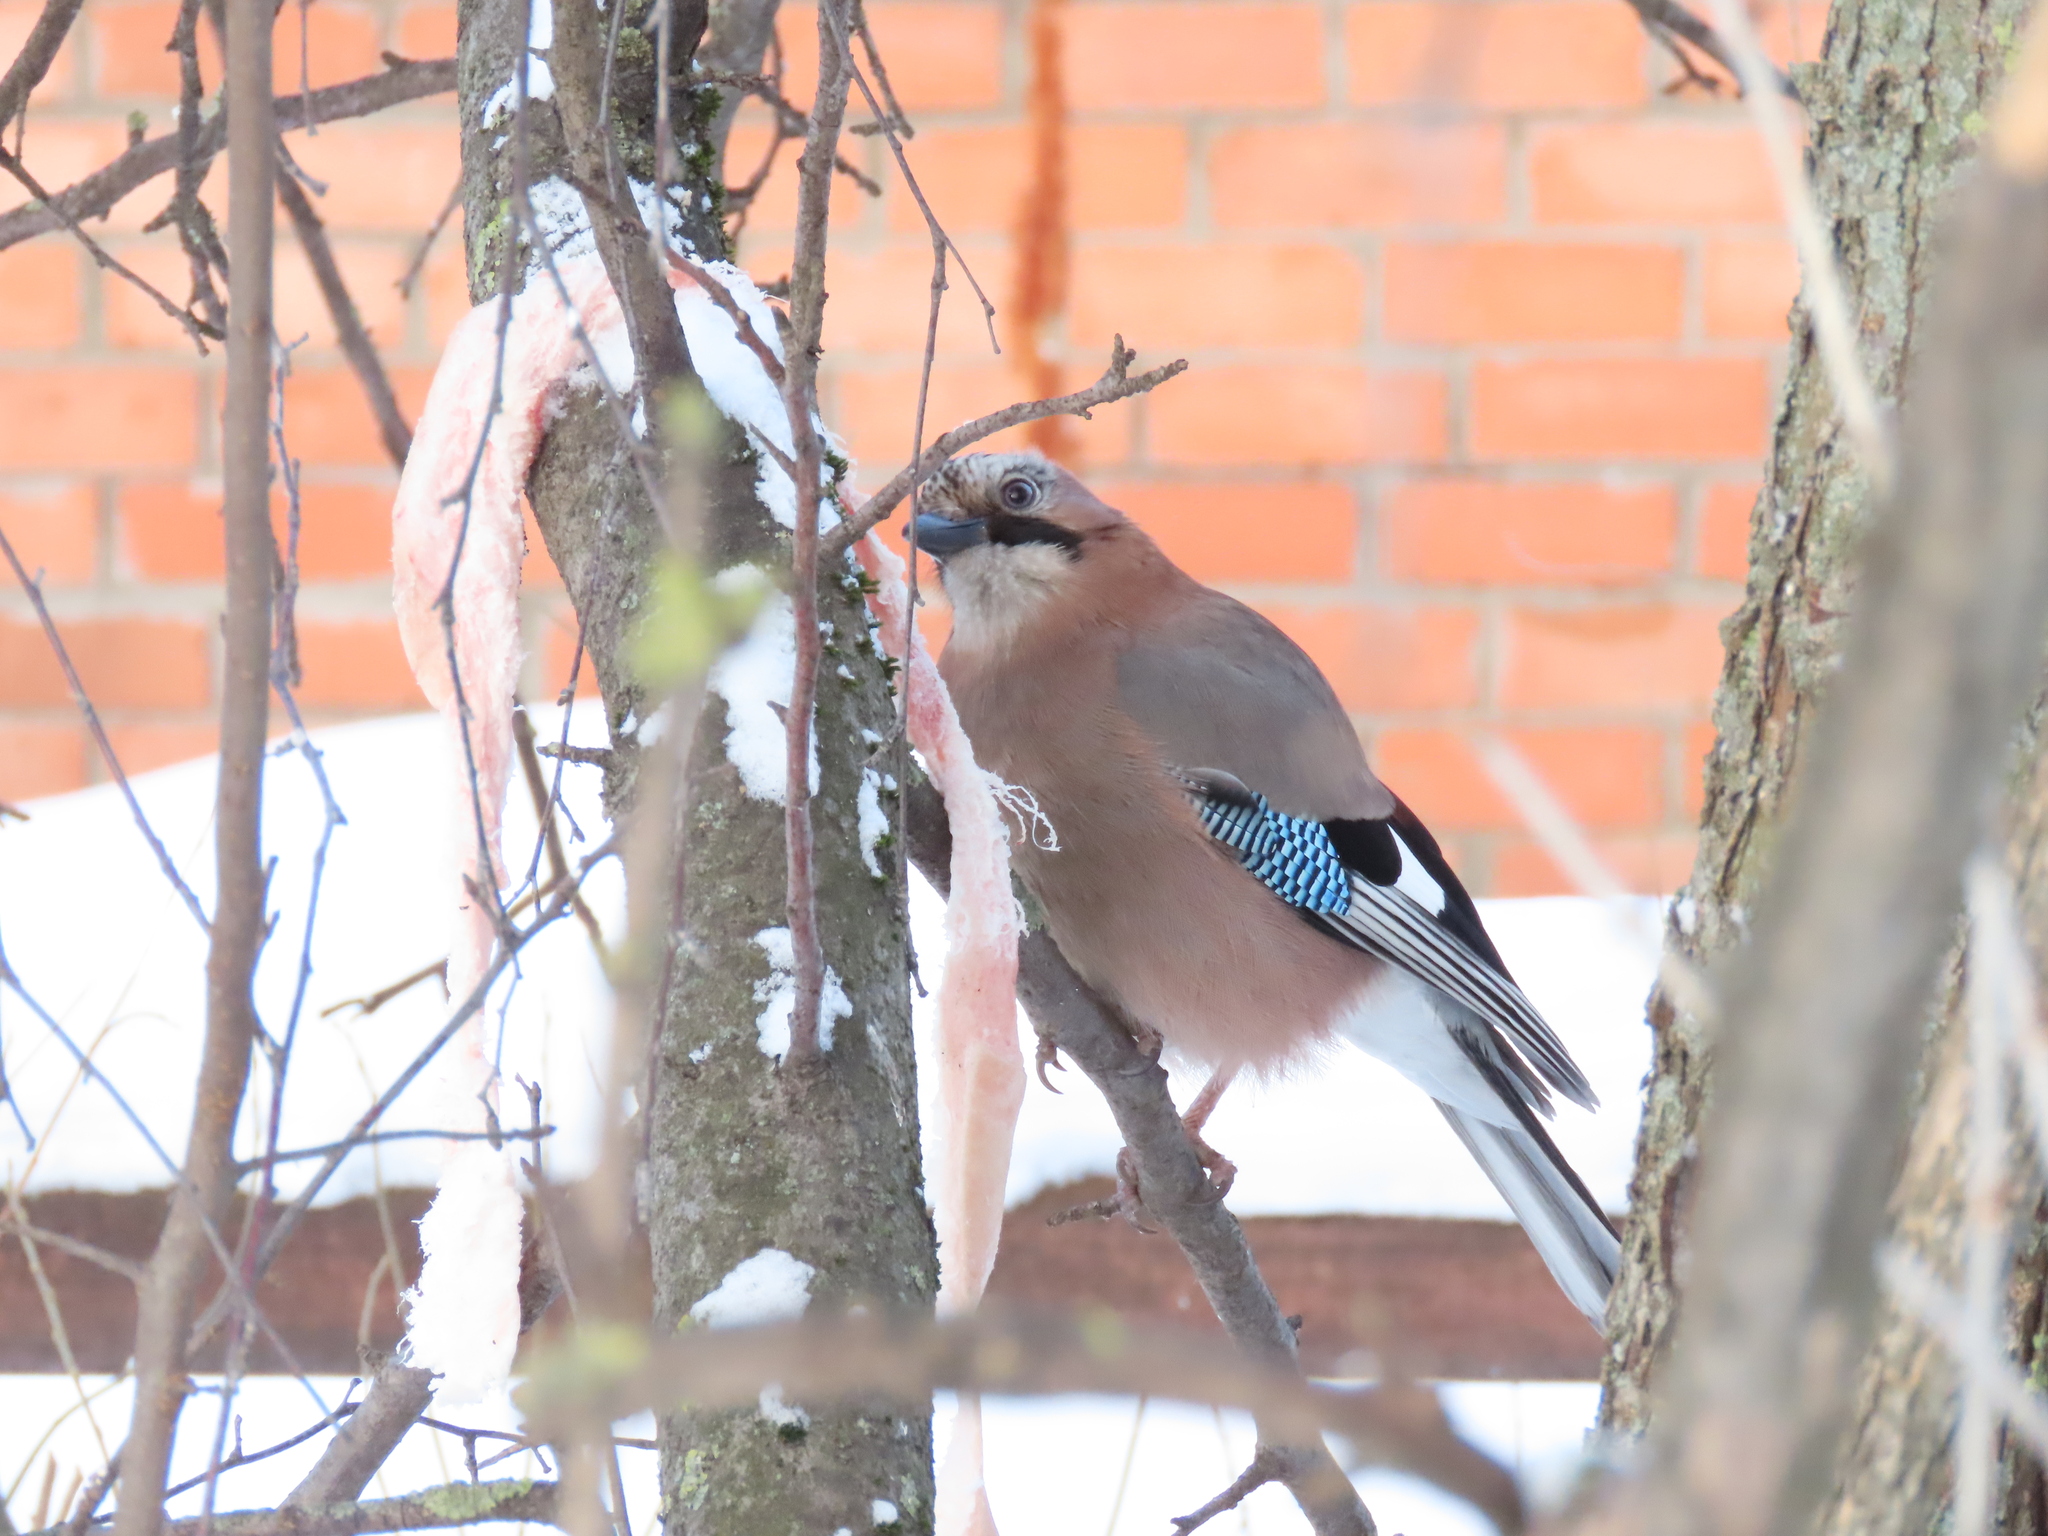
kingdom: Animalia
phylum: Chordata
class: Aves
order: Passeriformes
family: Corvidae
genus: Garrulus
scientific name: Garrulus glandarius
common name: Eurasian jay
